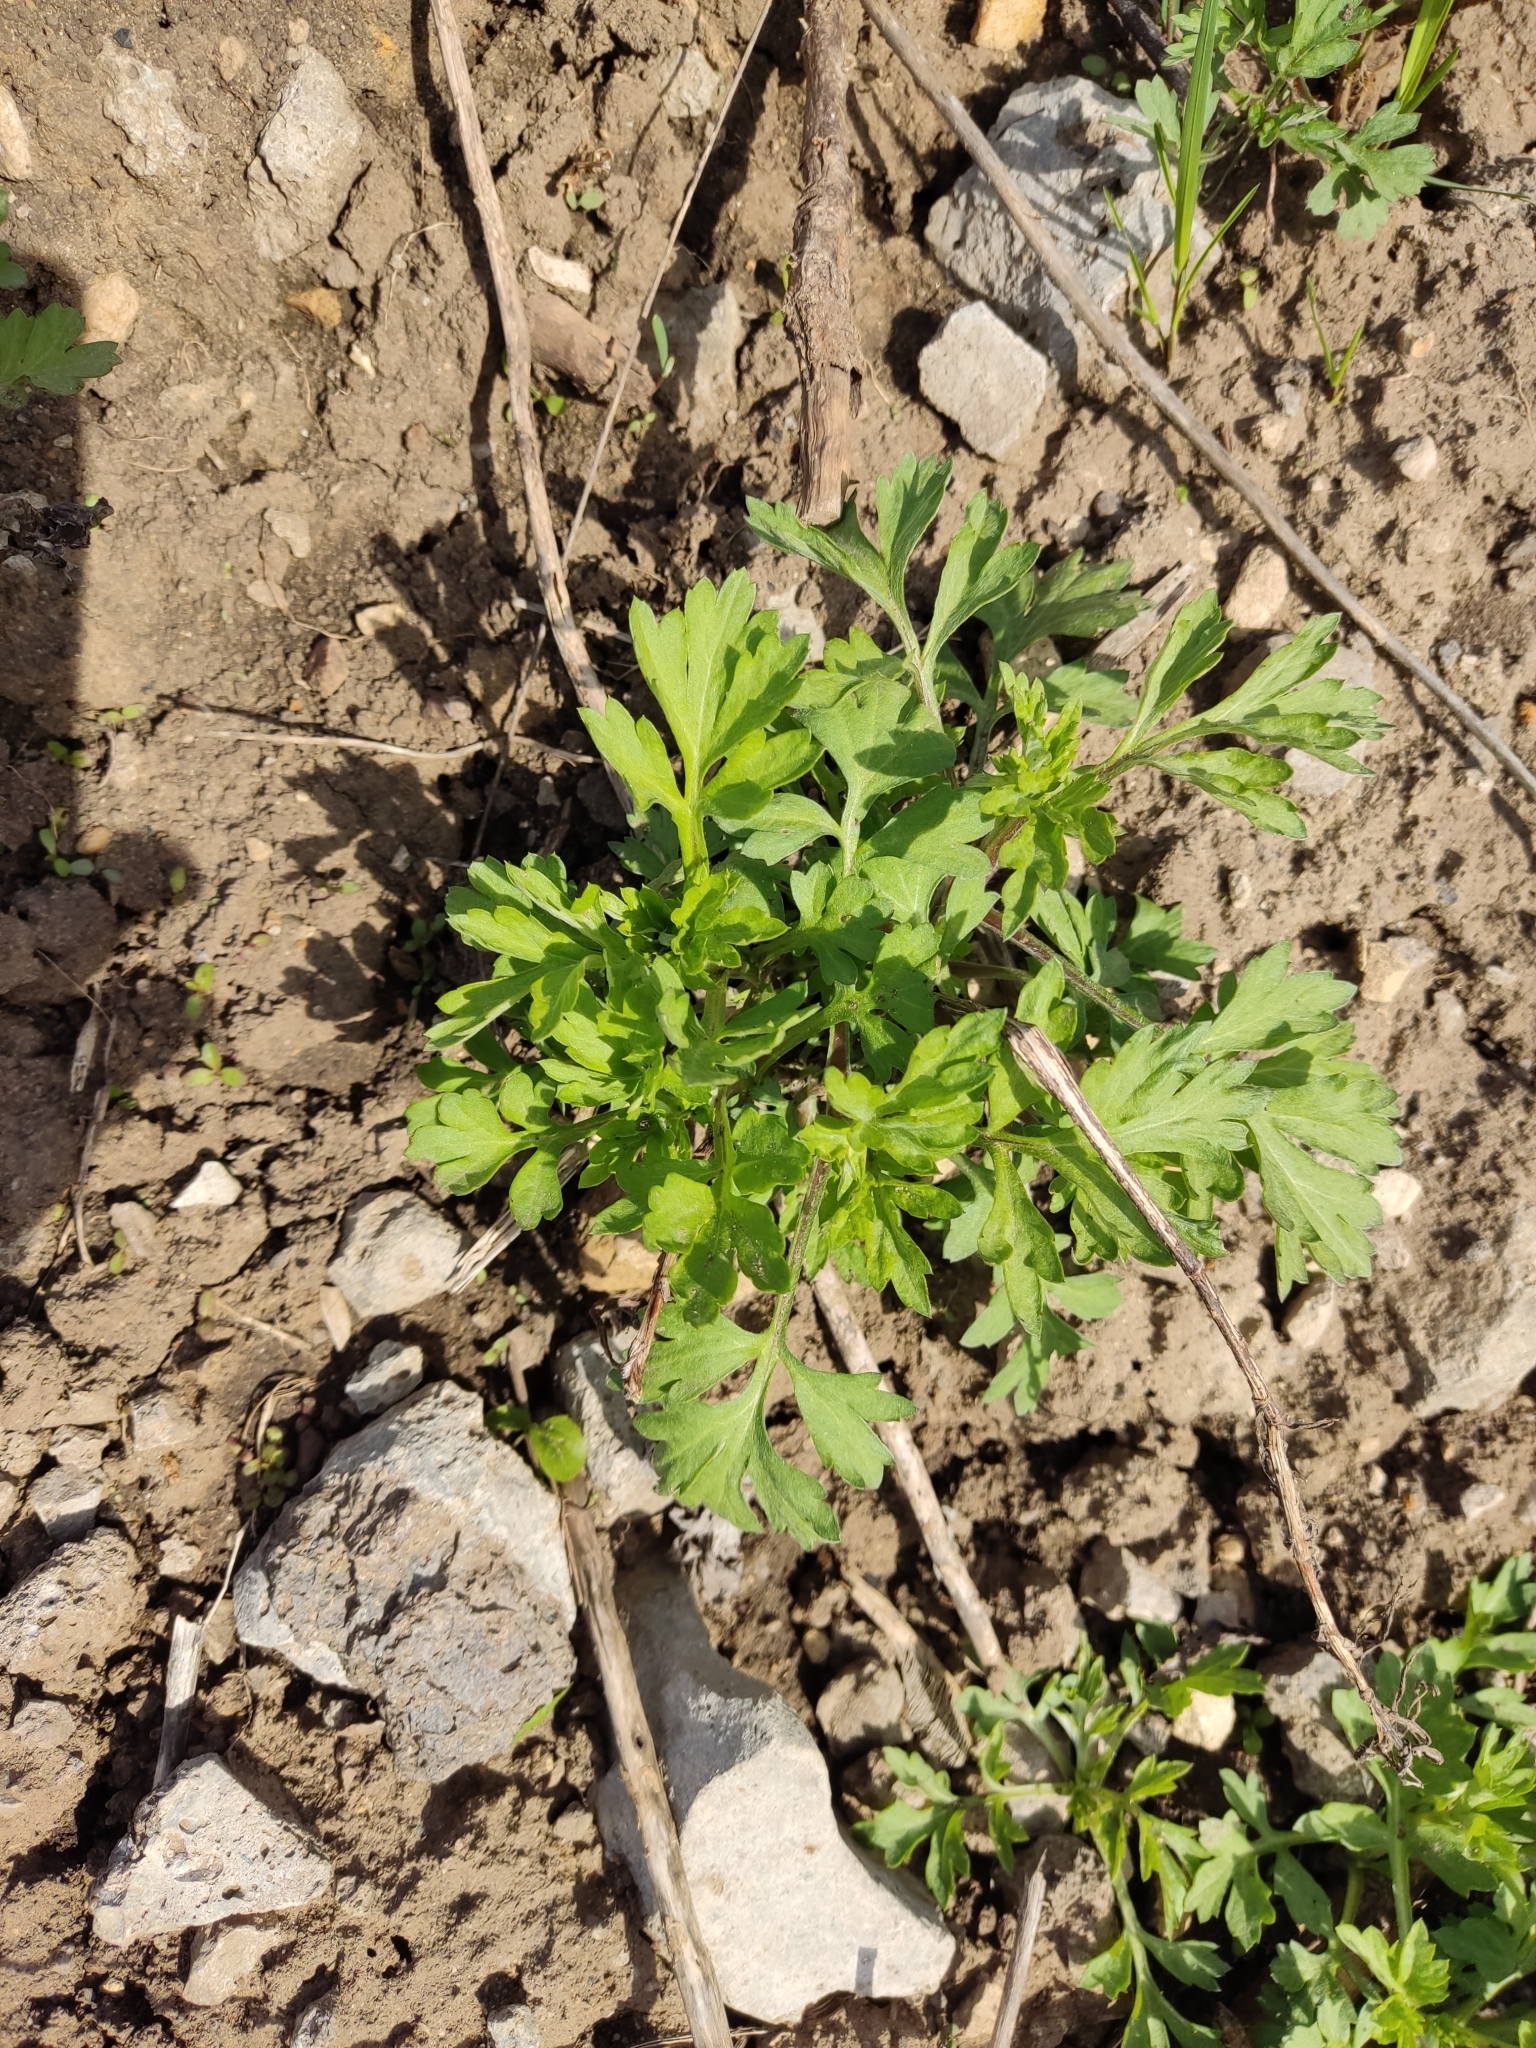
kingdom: Plantae
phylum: Tracheophyta
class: Magnoliopsida
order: Asterales
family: Asteraceae
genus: Artemisia
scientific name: Artemisia vulgaris
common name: Mugwort
